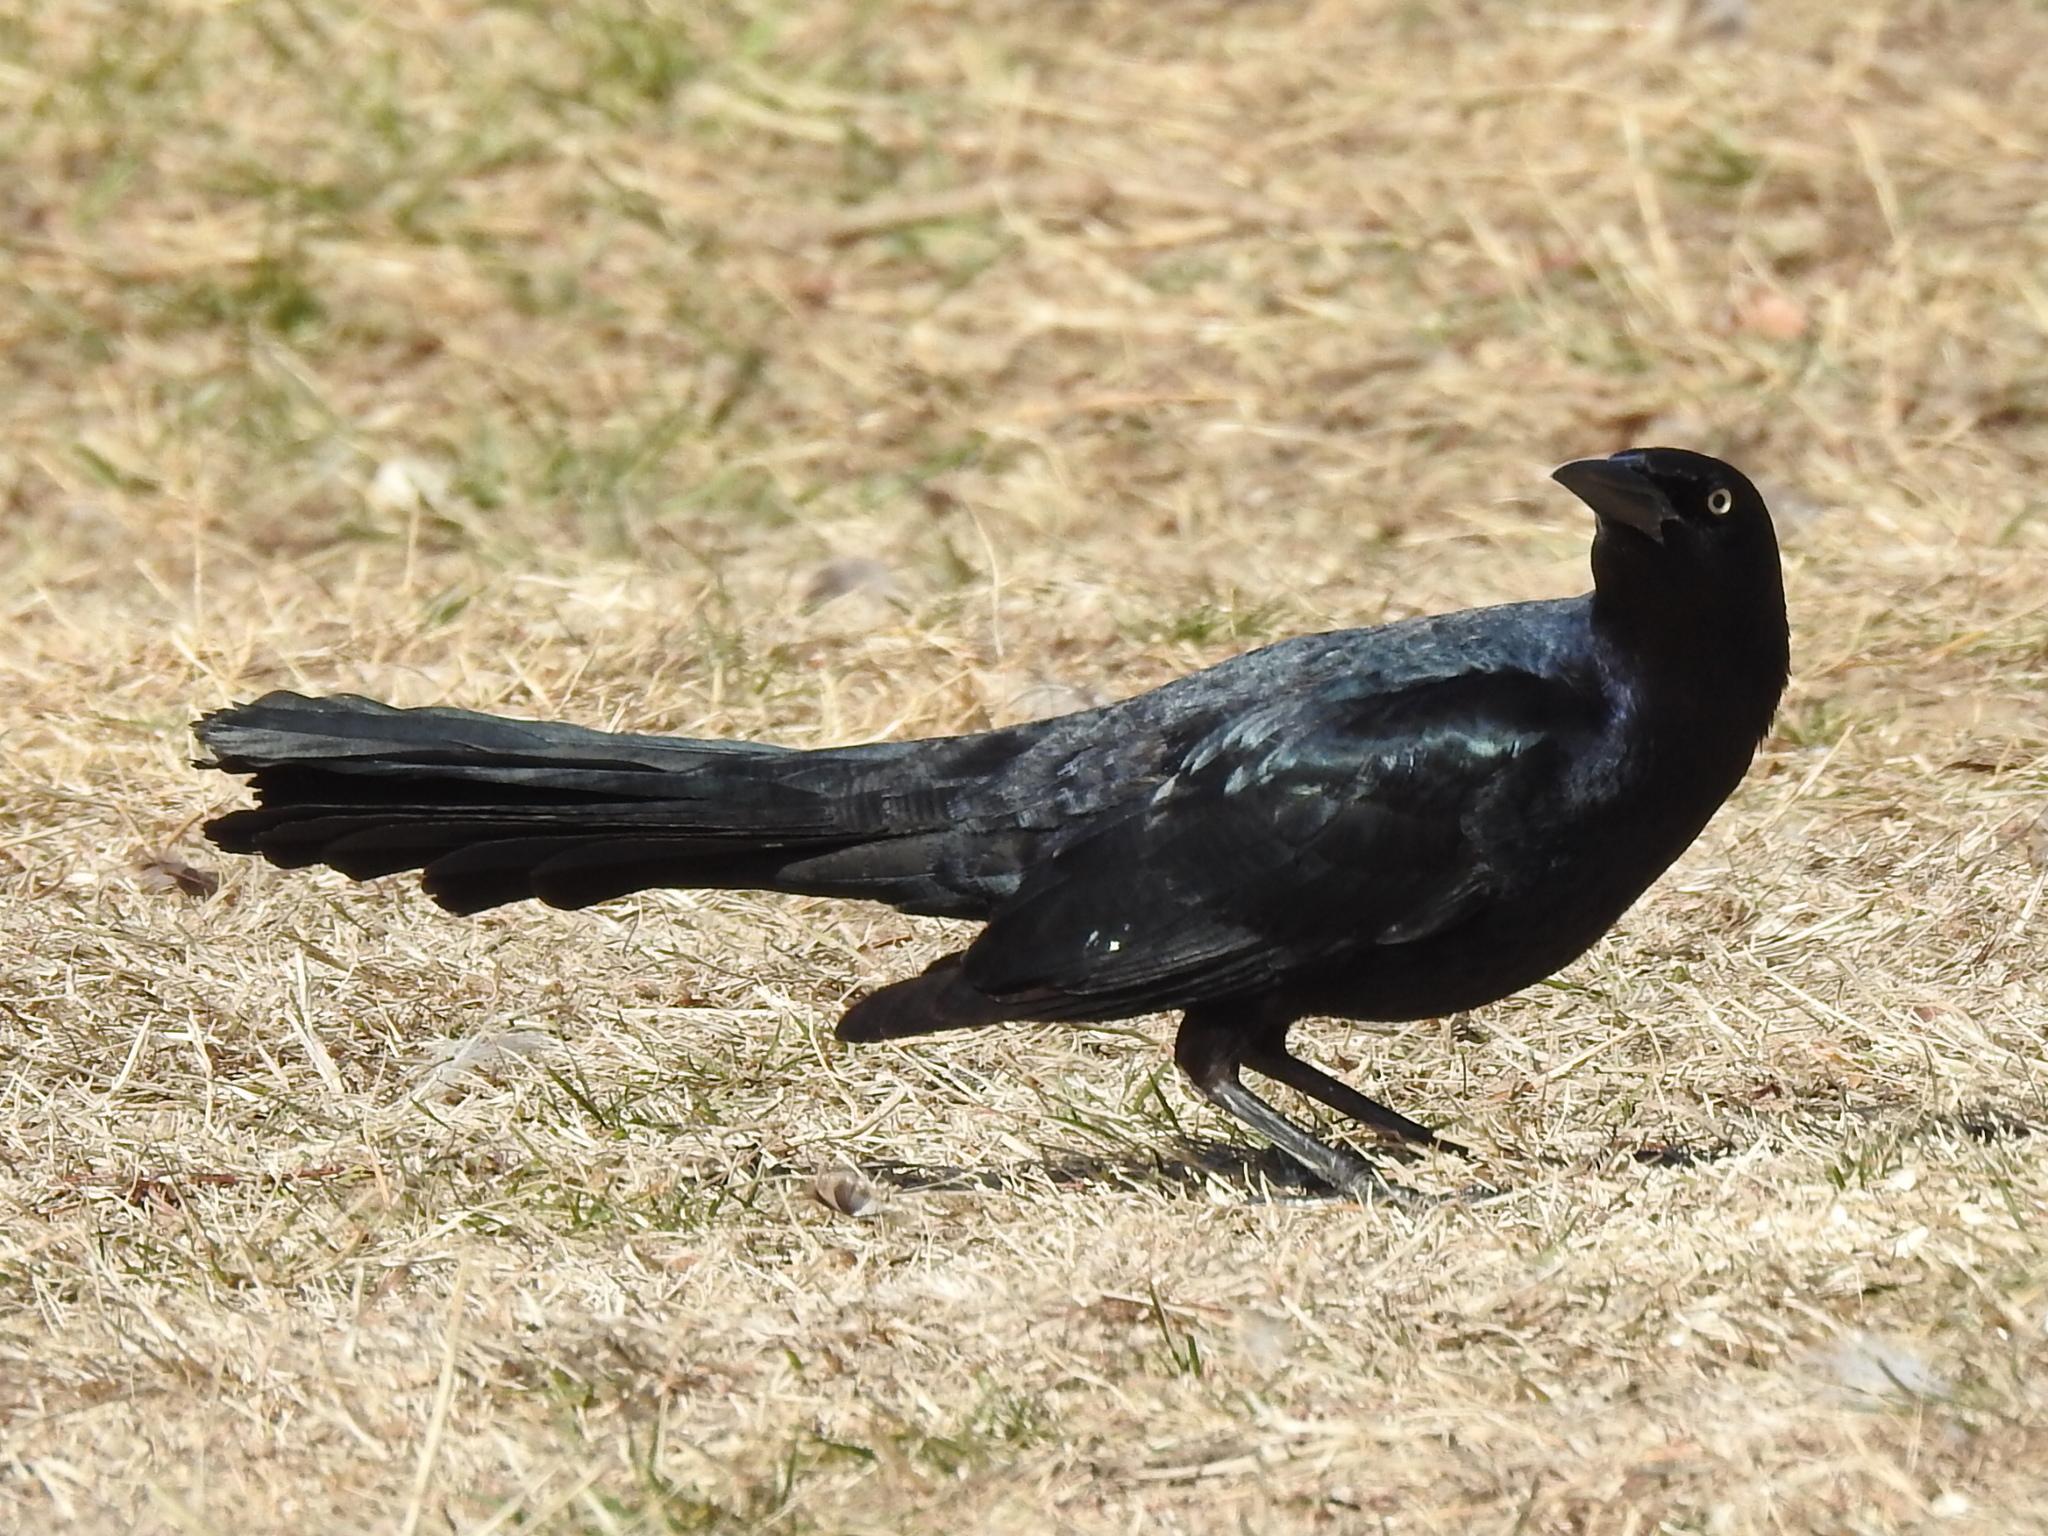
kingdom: Animalia
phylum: Chordata
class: Aves
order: Passeriformes
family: Icteridae
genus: Quiscalus
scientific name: Quiscalus mexicanus
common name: Great-tailed grackle
